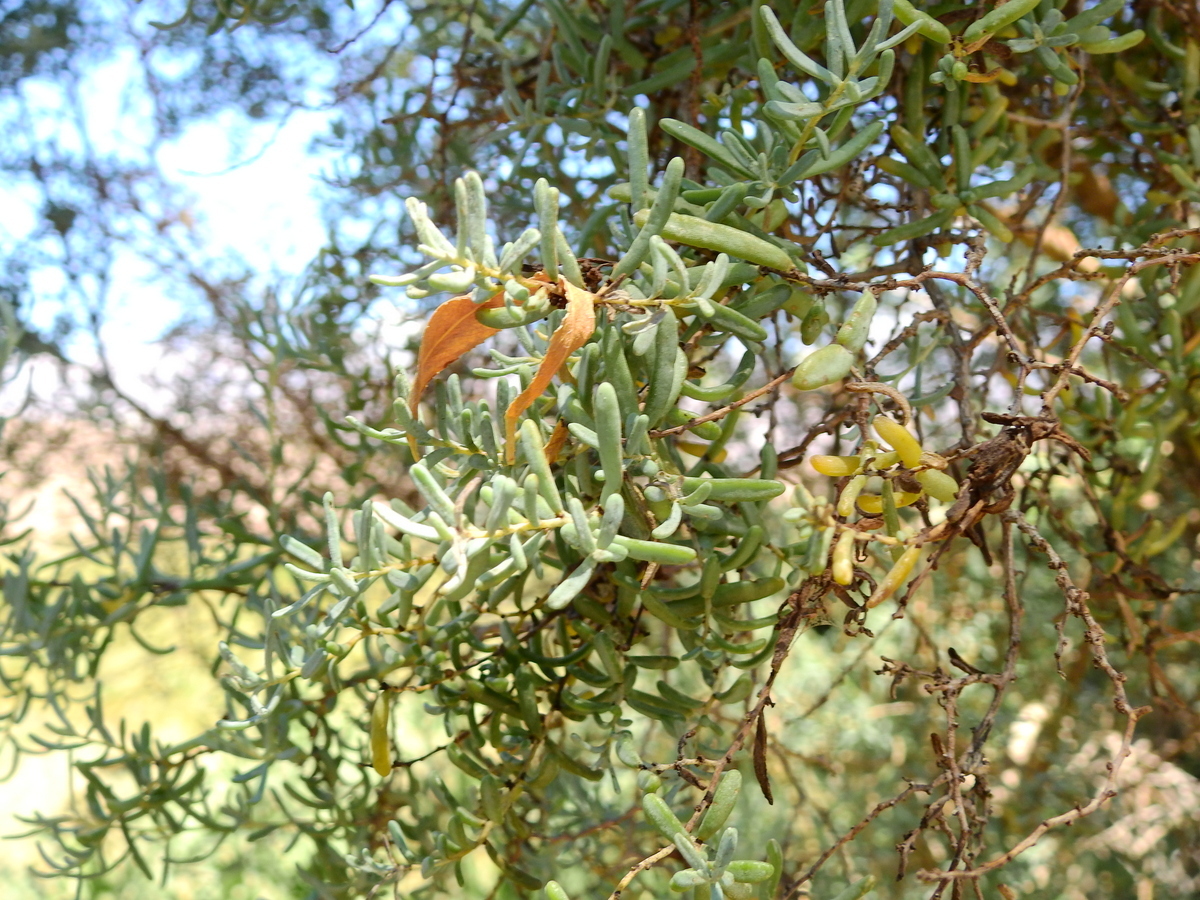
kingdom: Plantae
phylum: Tracheophyta
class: Magnoliopsida
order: Caryophyllales
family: Amaranthaceae
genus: Suaeda
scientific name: Suaeda divaricata
